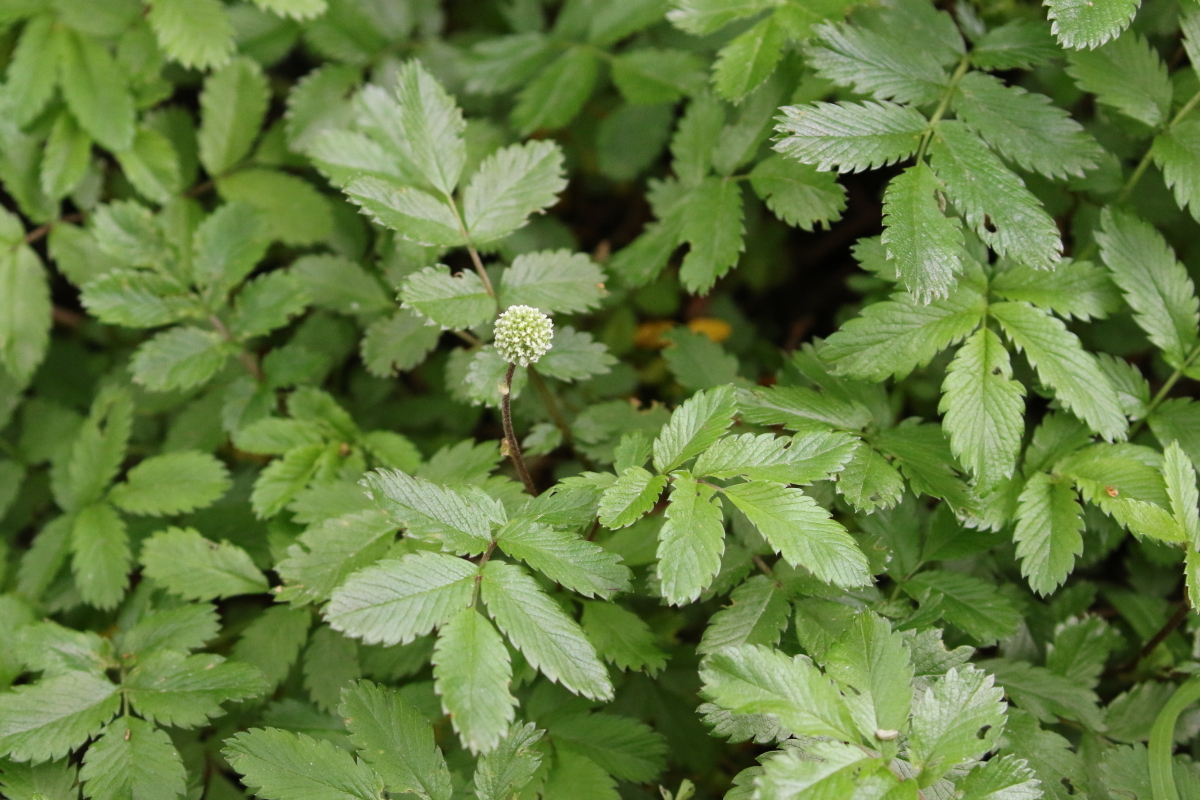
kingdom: Plantae
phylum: Tracheophyta
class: Magnoliopsida
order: Rosales
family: Rosaceae
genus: Acaena
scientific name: Acaena ovalifolia
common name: Two-spined acaena
